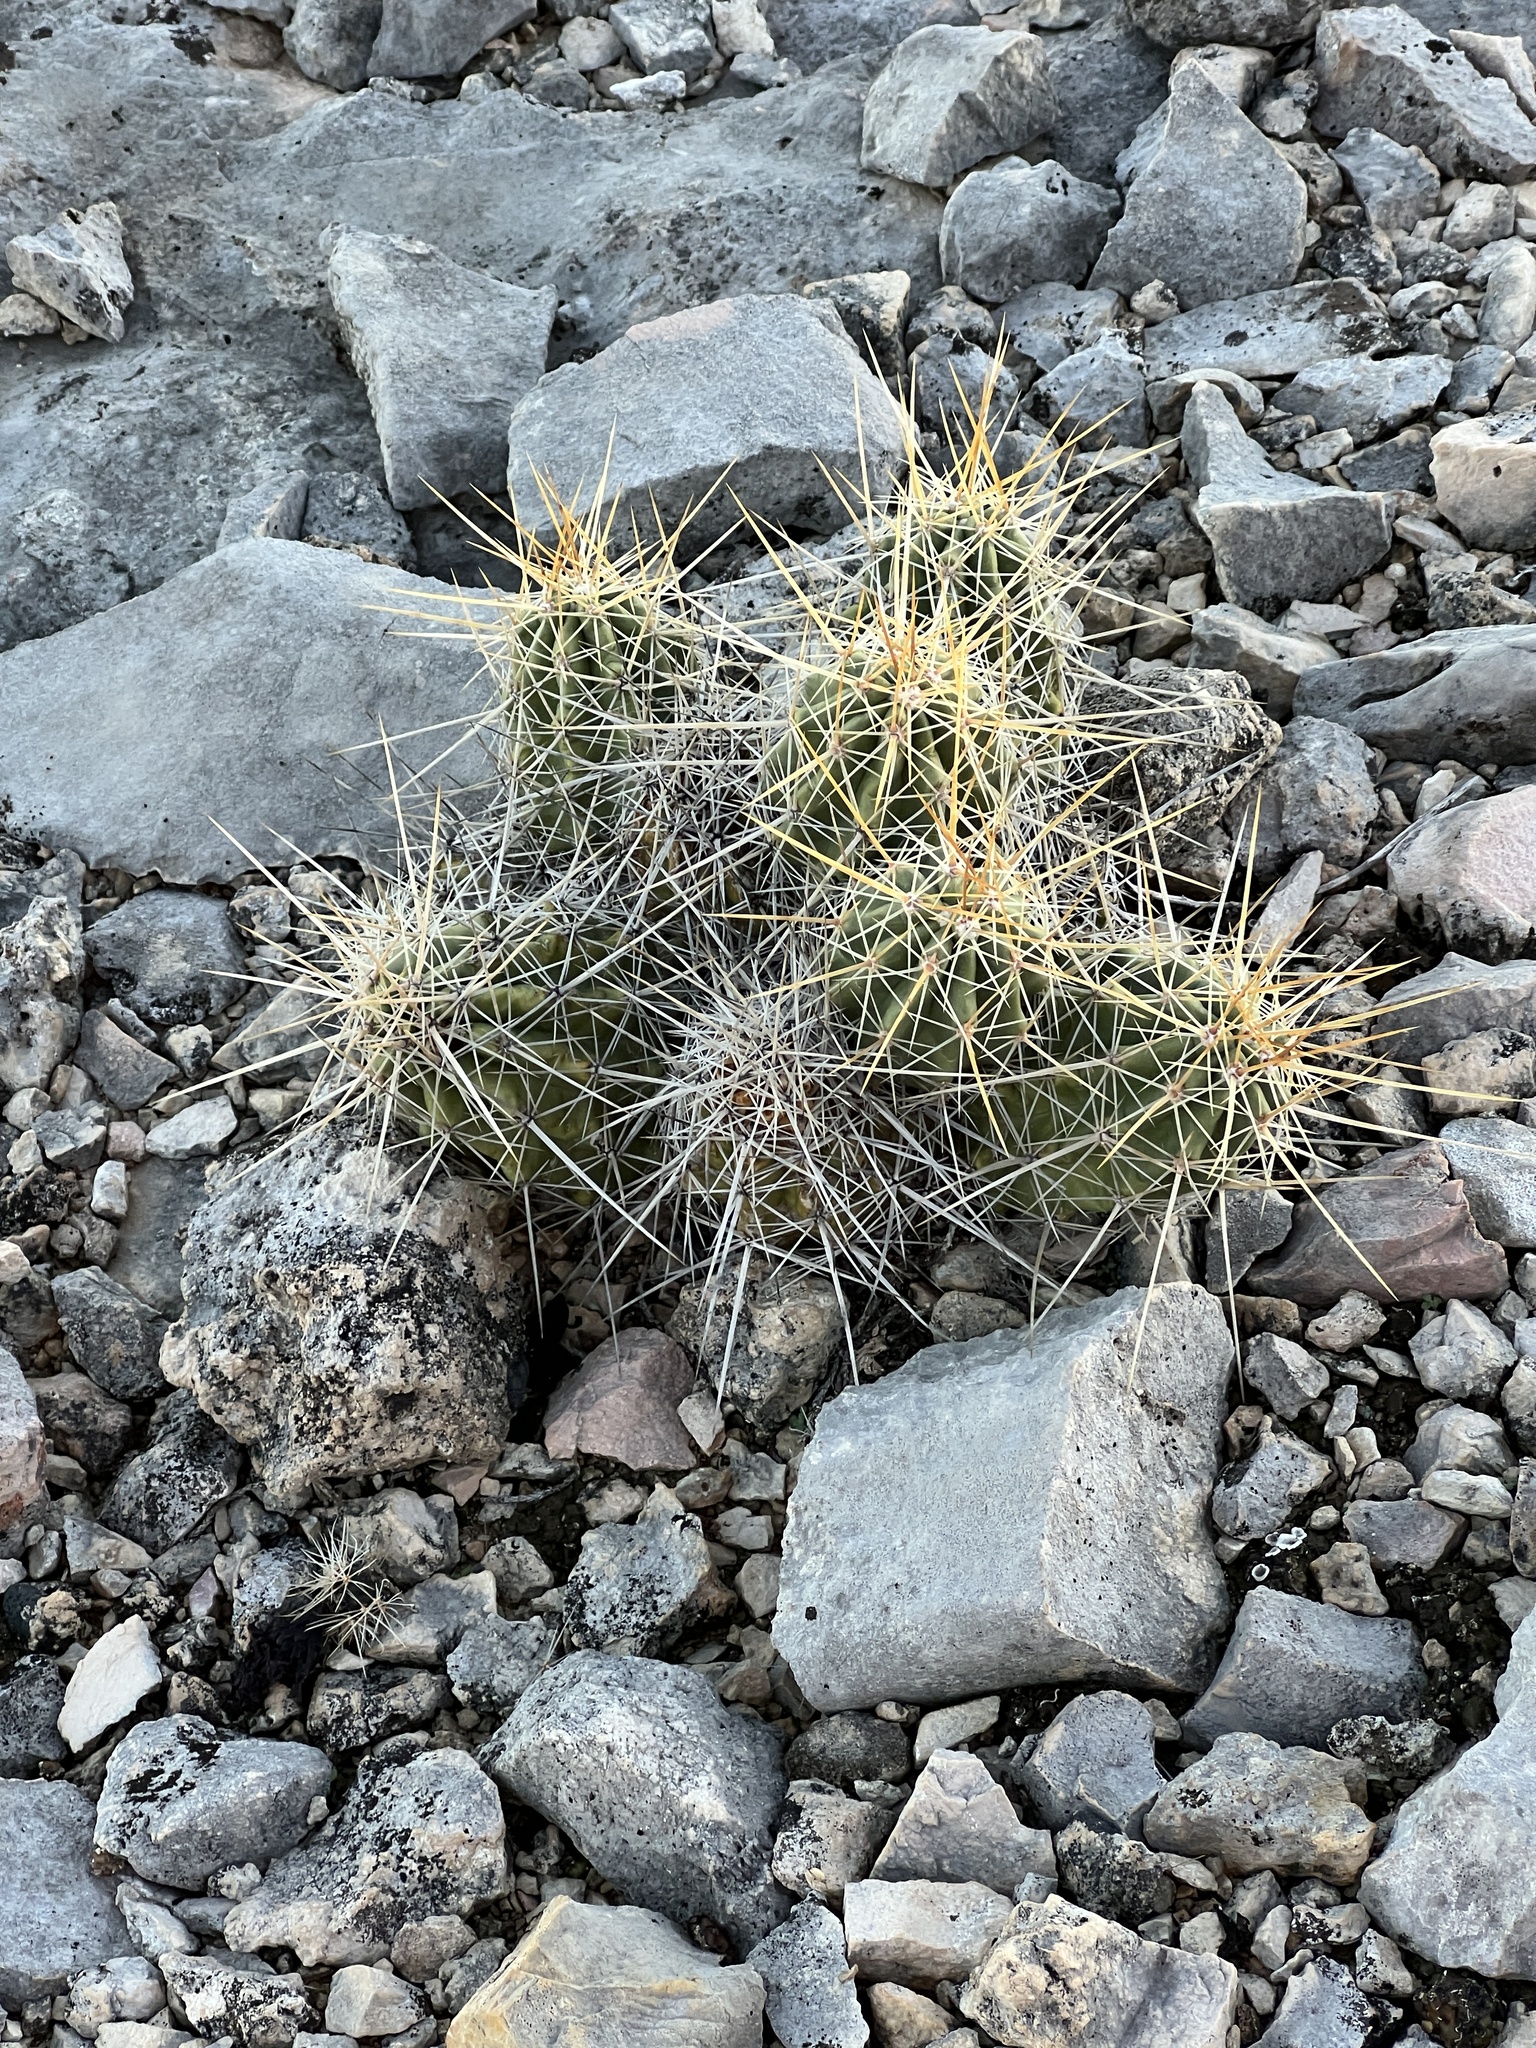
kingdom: Plantae
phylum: Tracheophyta
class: Magnoliopsida
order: Caryophyllales
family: Cactaceae
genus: Echinocereus
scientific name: Echinocereus enneacanthus
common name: Pitaya
